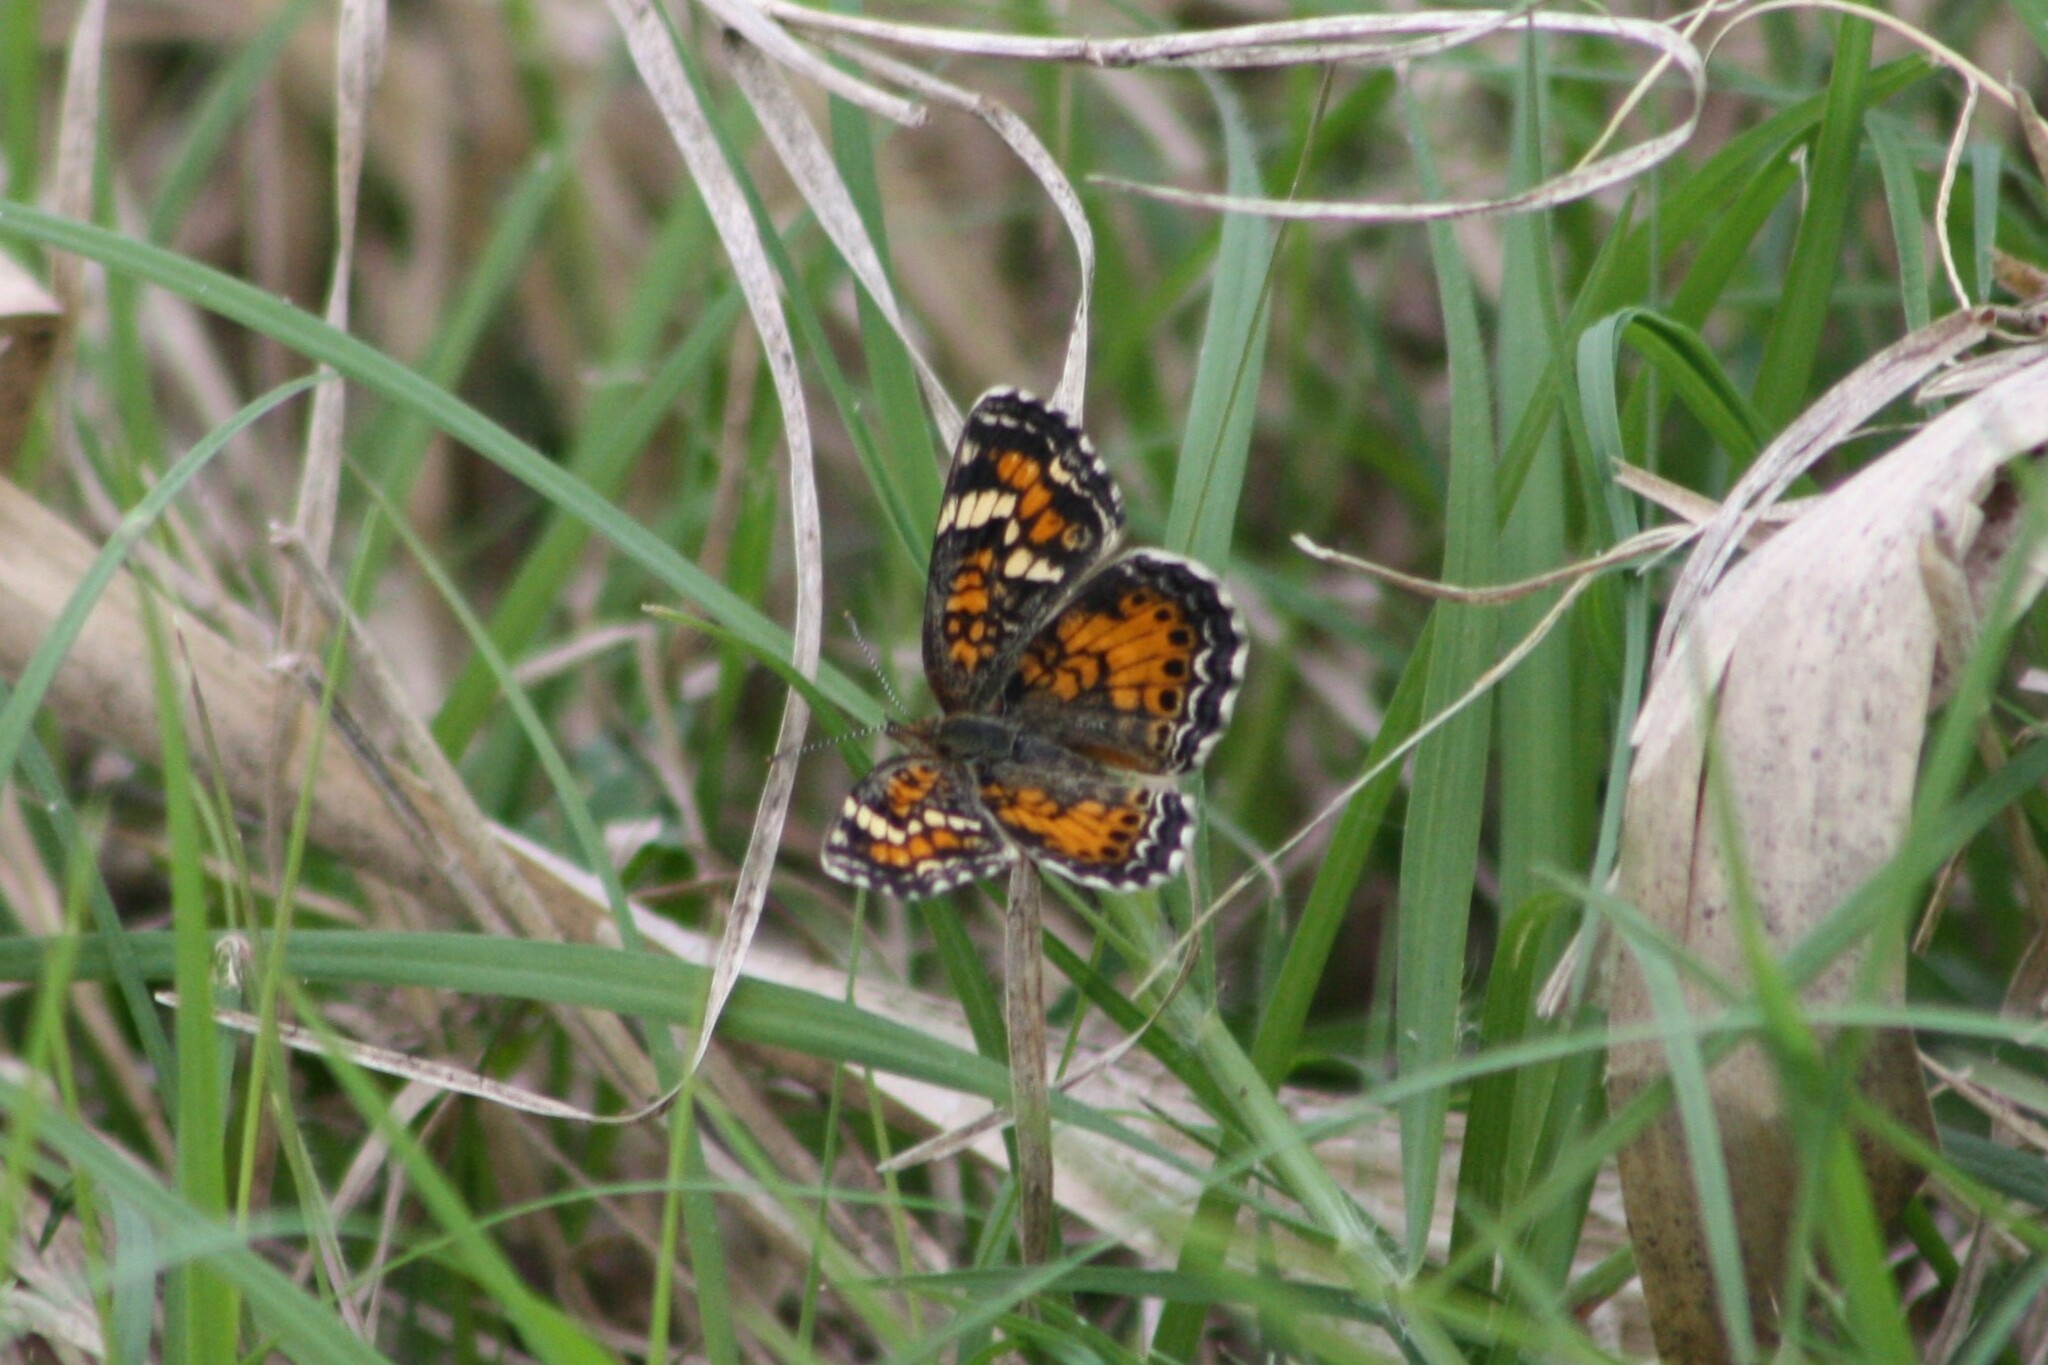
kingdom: Animalia
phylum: Arthropoda
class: Insecta
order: Lepidoptera
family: Nymphalidae
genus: Phyciodes
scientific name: Phyciodes phaon
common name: Phaon crescent
